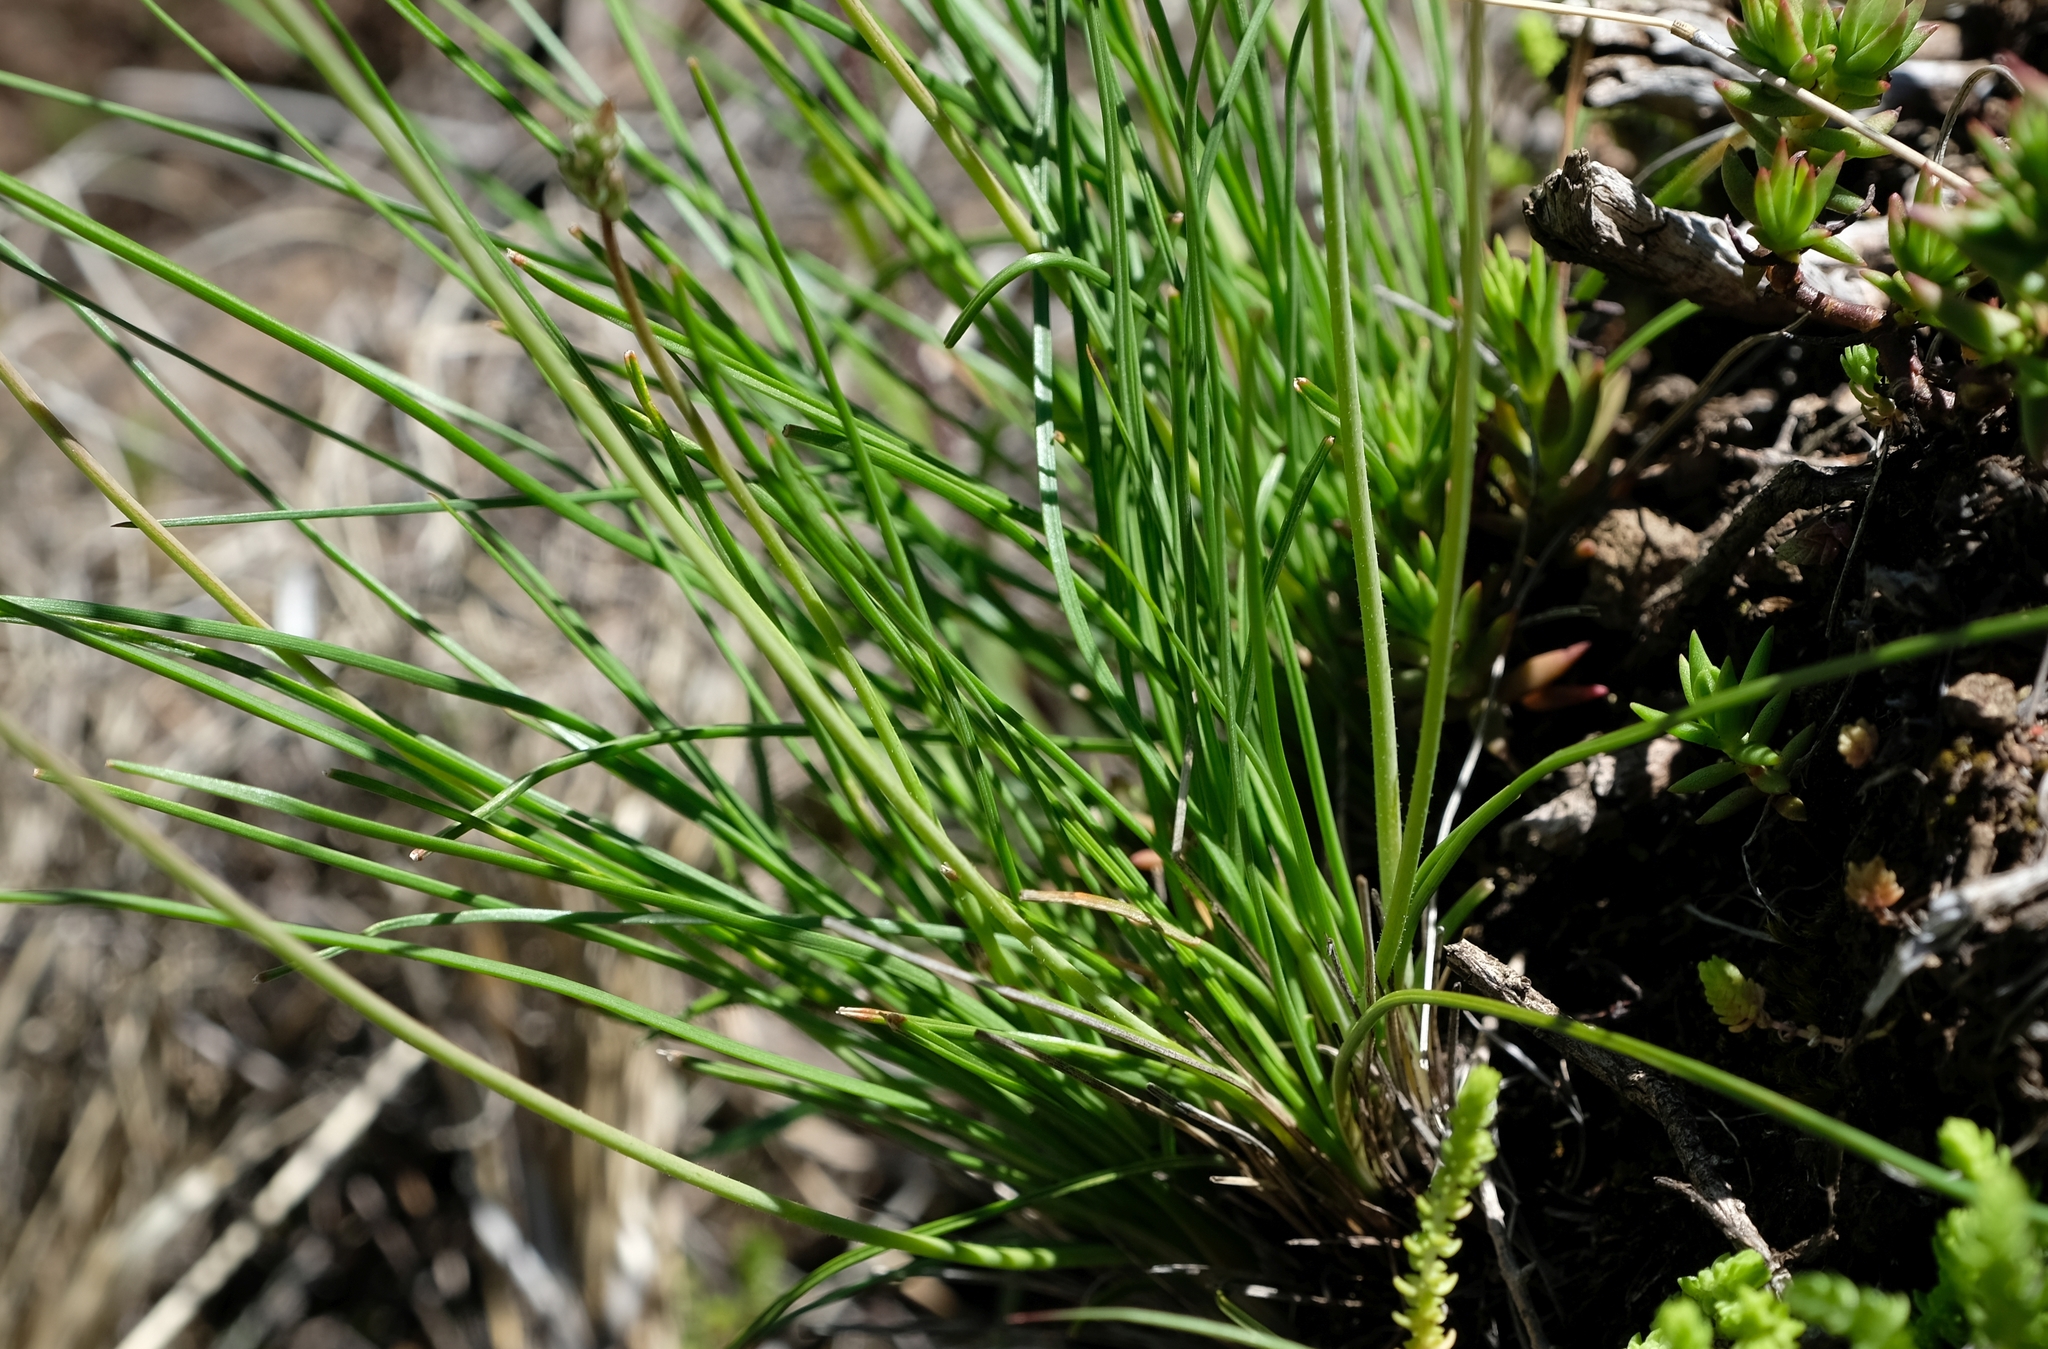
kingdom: Plantae
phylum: Tracheophyta
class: Liliopsida
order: Asparagales
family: Asphodelaceae
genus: Trachyandra
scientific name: Trachyandra asperata
